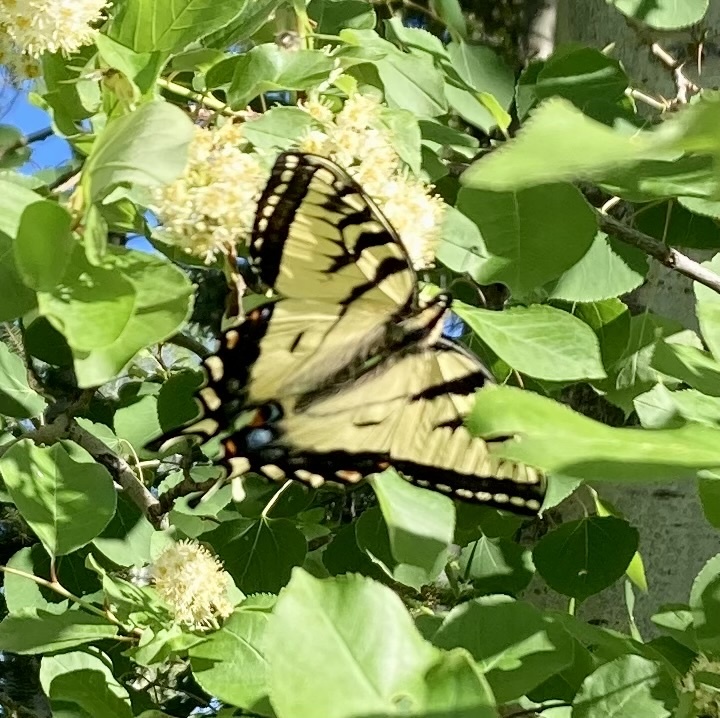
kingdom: Animalia
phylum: Arthropoda
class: Insecta
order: Lepidoptera
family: Papilionidae
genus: Papilio
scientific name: Papilio canadensis
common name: Canadian tiger swallowtail
